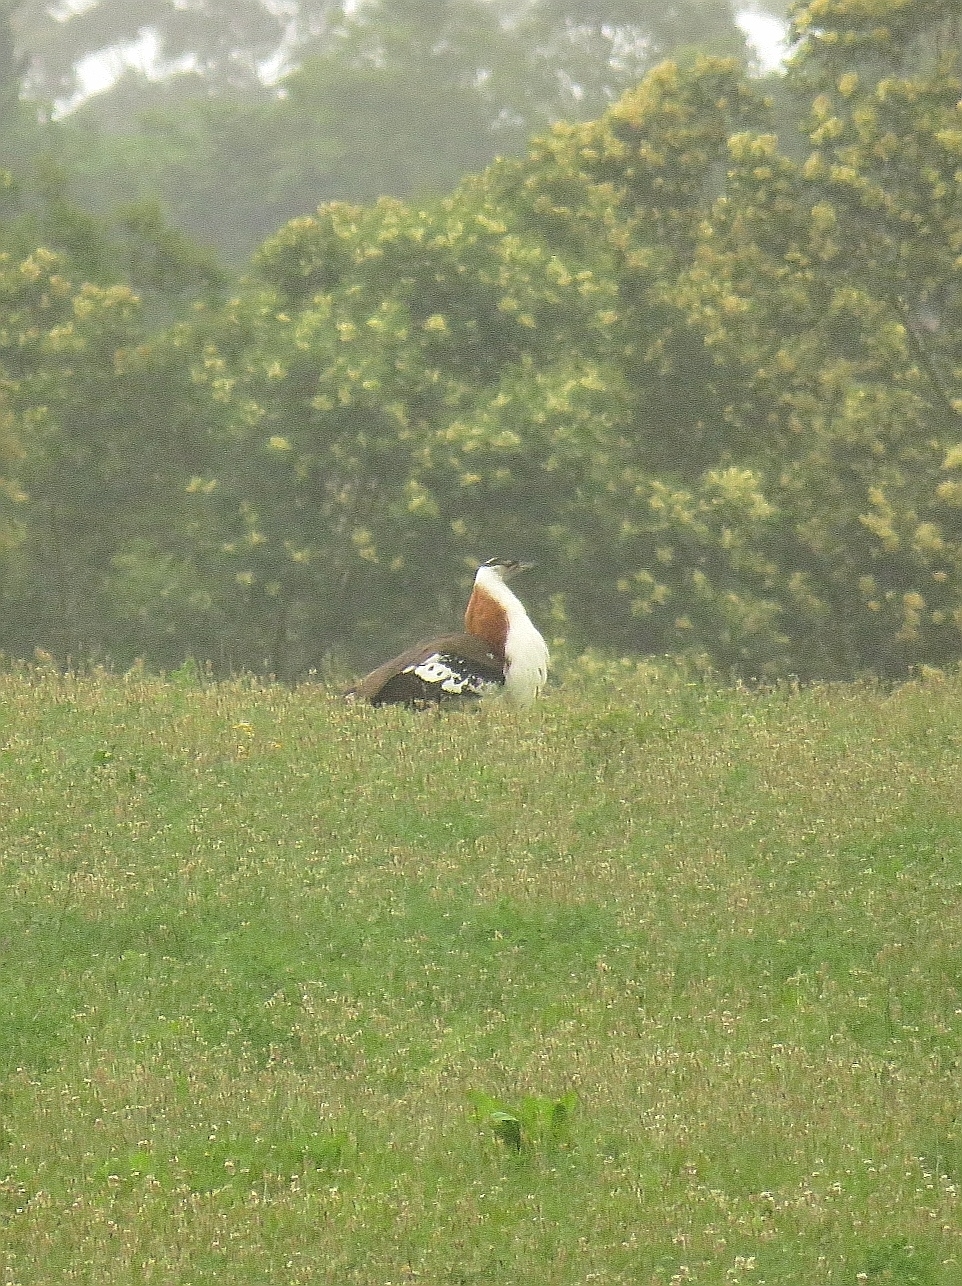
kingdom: Animalia
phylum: Chordata
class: Aves
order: Otidiformes
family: Otididae
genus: Neotis
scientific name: Neotis denhami
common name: Denham's bustard
